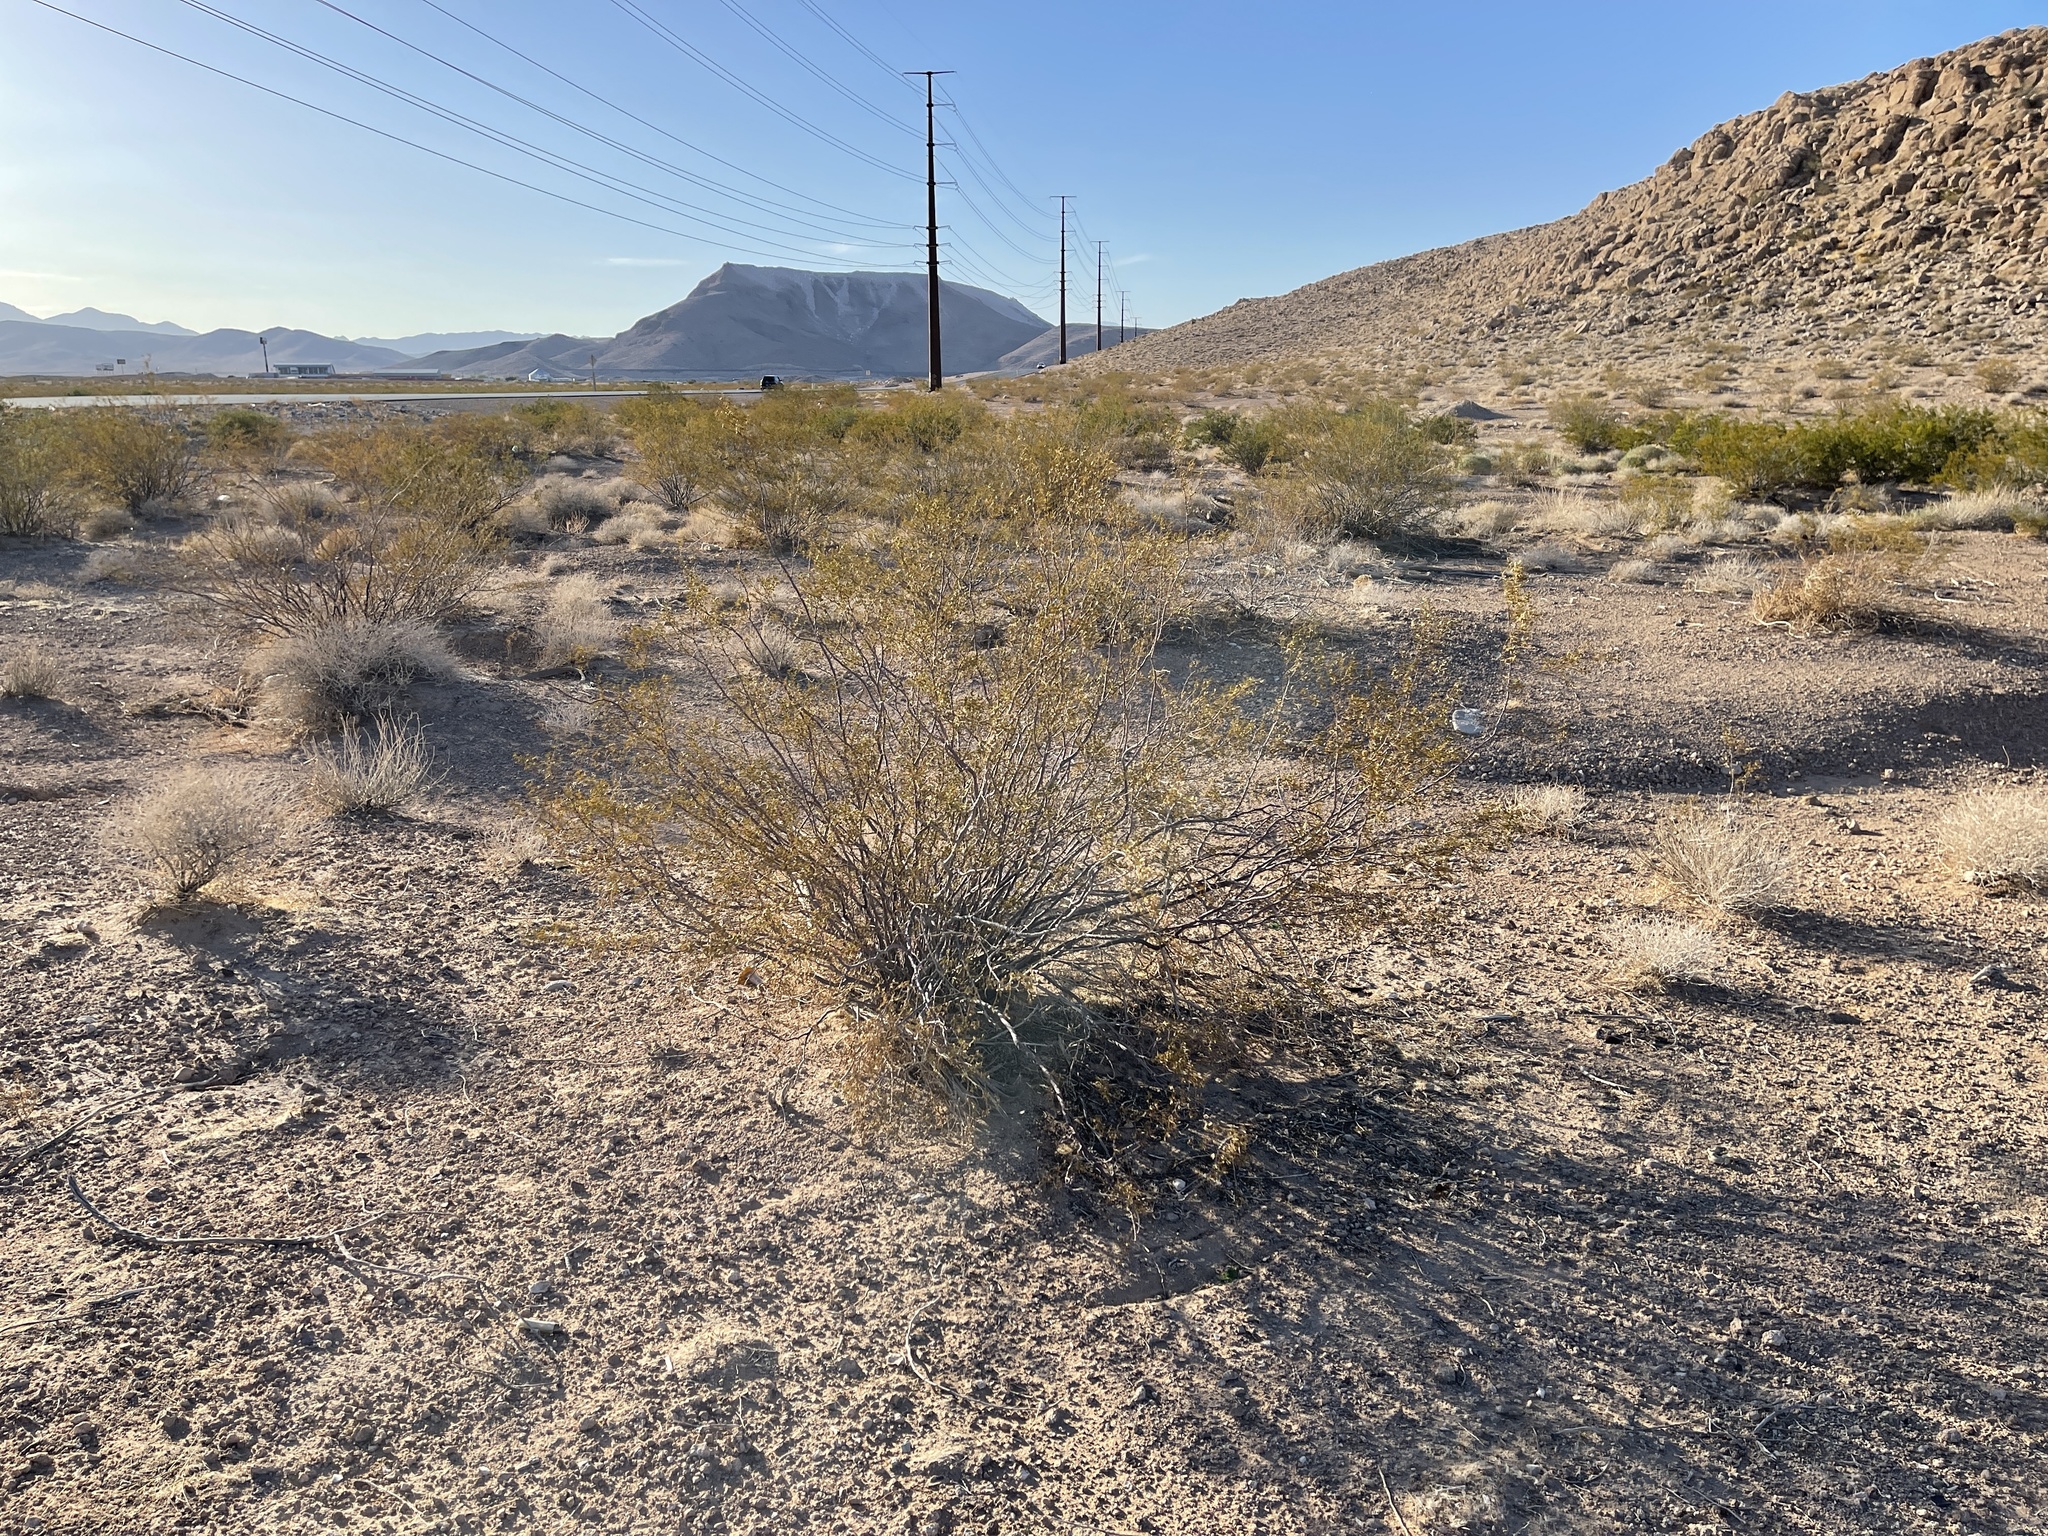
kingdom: Plantae
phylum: Tracheophyta
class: Magnoliopsida
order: Zygophyllales
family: Zygophyllaceae
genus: Larrea
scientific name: Larrea tridentata
